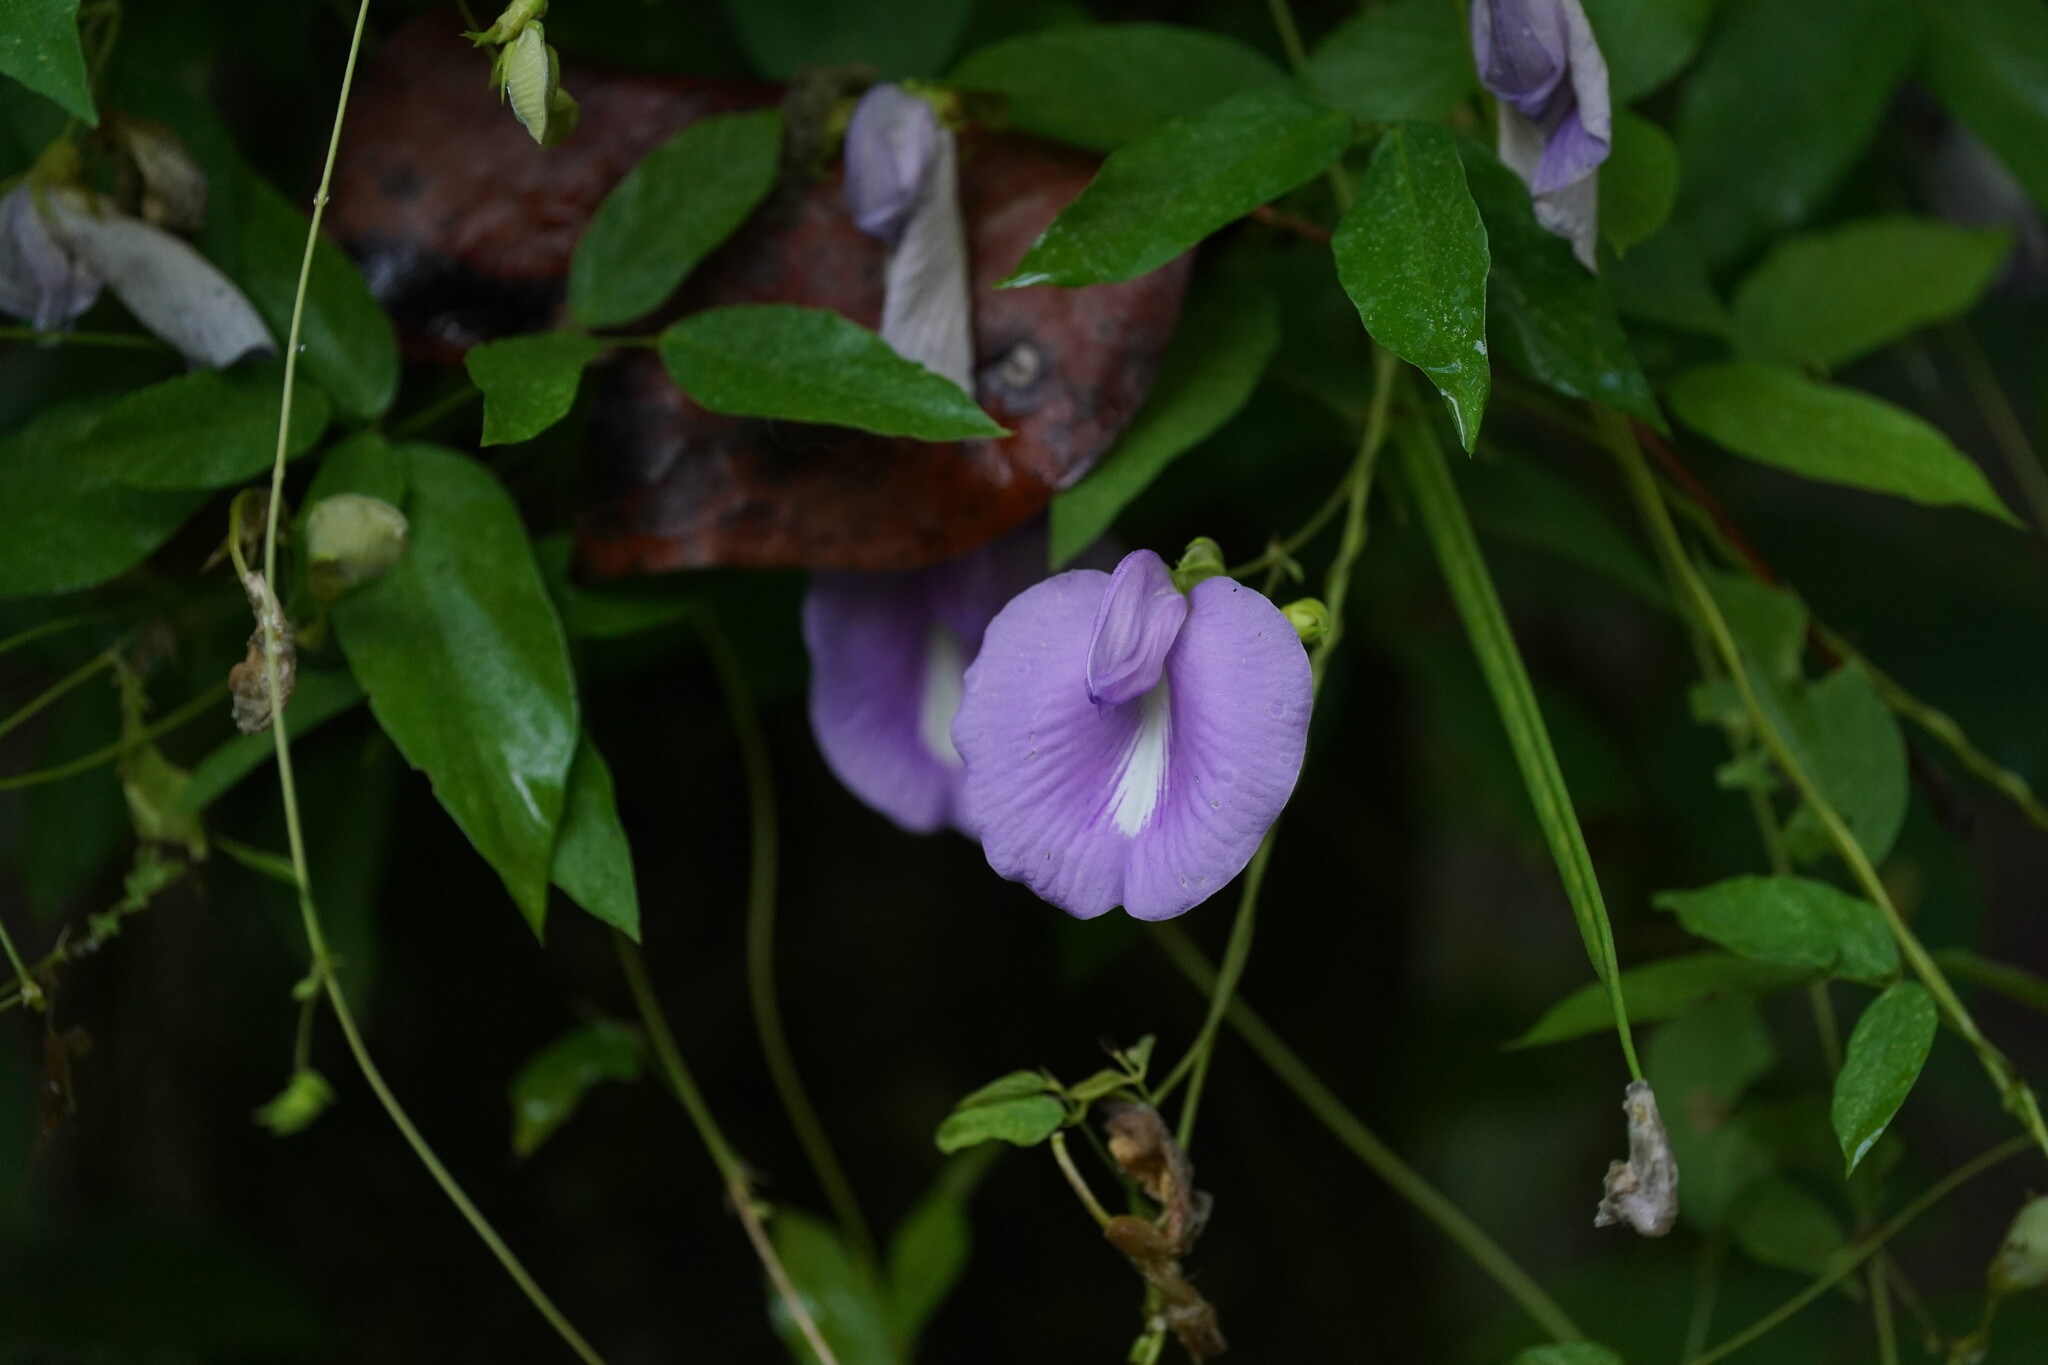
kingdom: Plantae
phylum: Tracheophyta
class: Magnoliopsida
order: Fabales
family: Fabaceae
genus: Centrosema
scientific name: Centrosema virginianum
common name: Butterfly-pea
